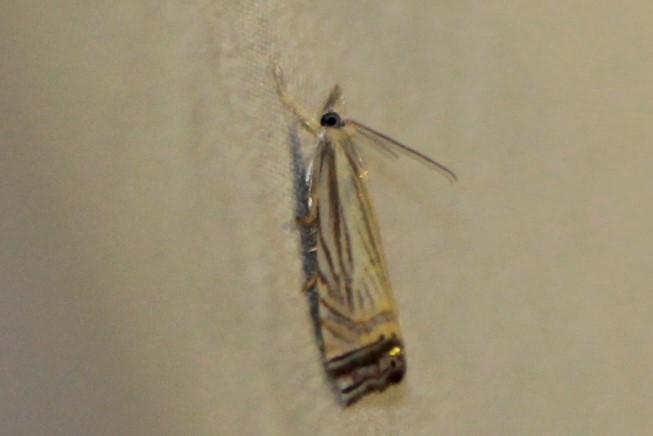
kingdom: Animalia
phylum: Arthropoda
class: Insecta
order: Lepidoptera
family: Crambidae
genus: Chrysoteuchia
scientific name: Chrysoteuchia topiarius
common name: Topiary grass-veneer
